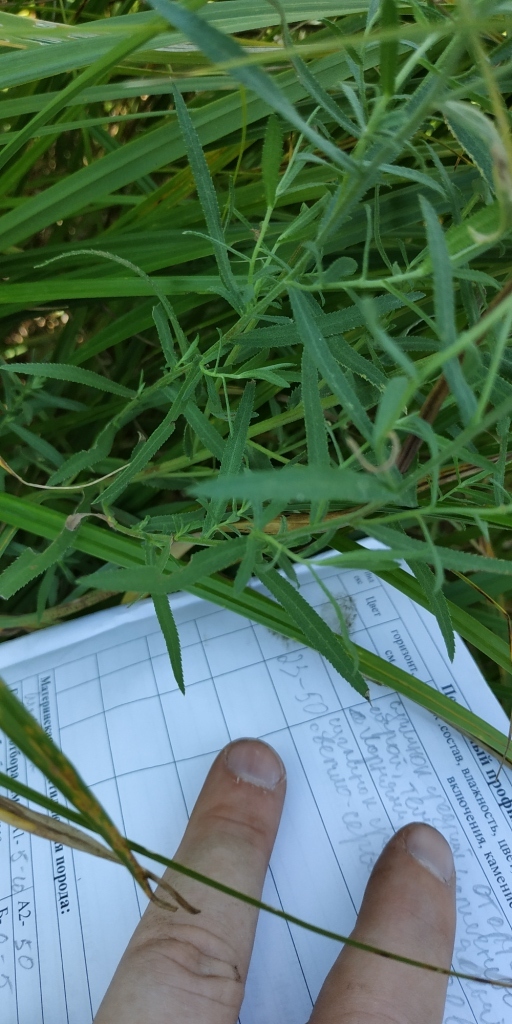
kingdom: Plantae
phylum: Tracheophyta
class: Magnoliopsida
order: Asterales
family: Asteraceae
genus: Achillea
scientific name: Achillea salicifolia
